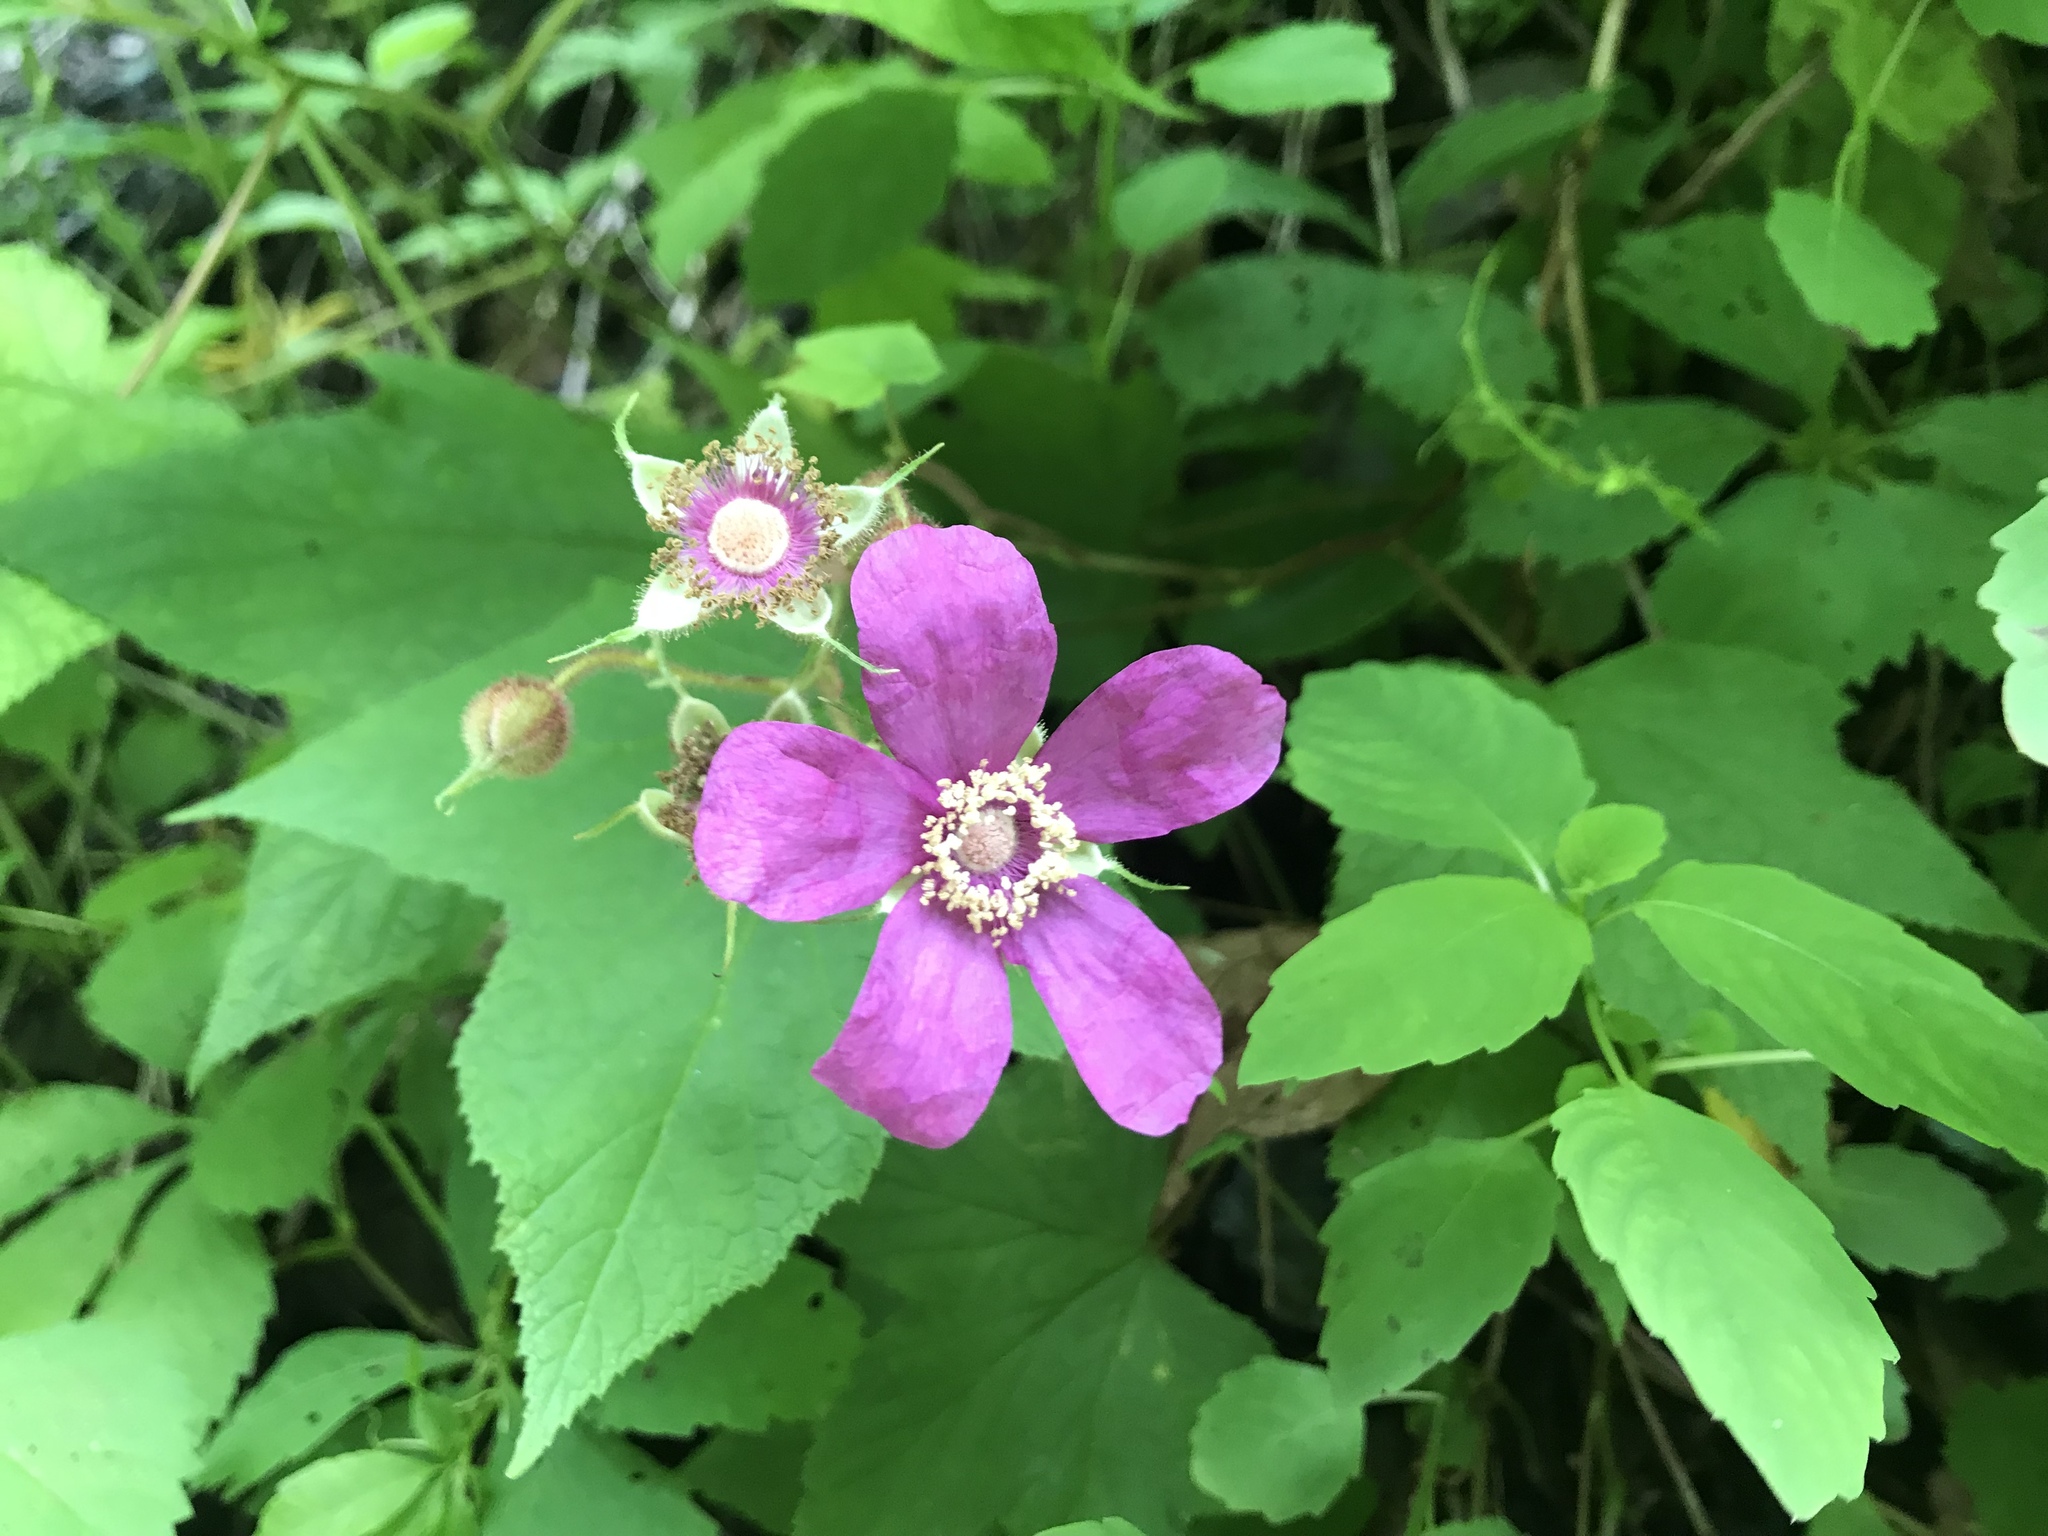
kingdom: Plantae
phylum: Tracheophyta
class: Magnoliopsida
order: Rosales
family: Rosaceae
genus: Rubus
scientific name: Rubus odoratus
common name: Purple-flowered raspberry
